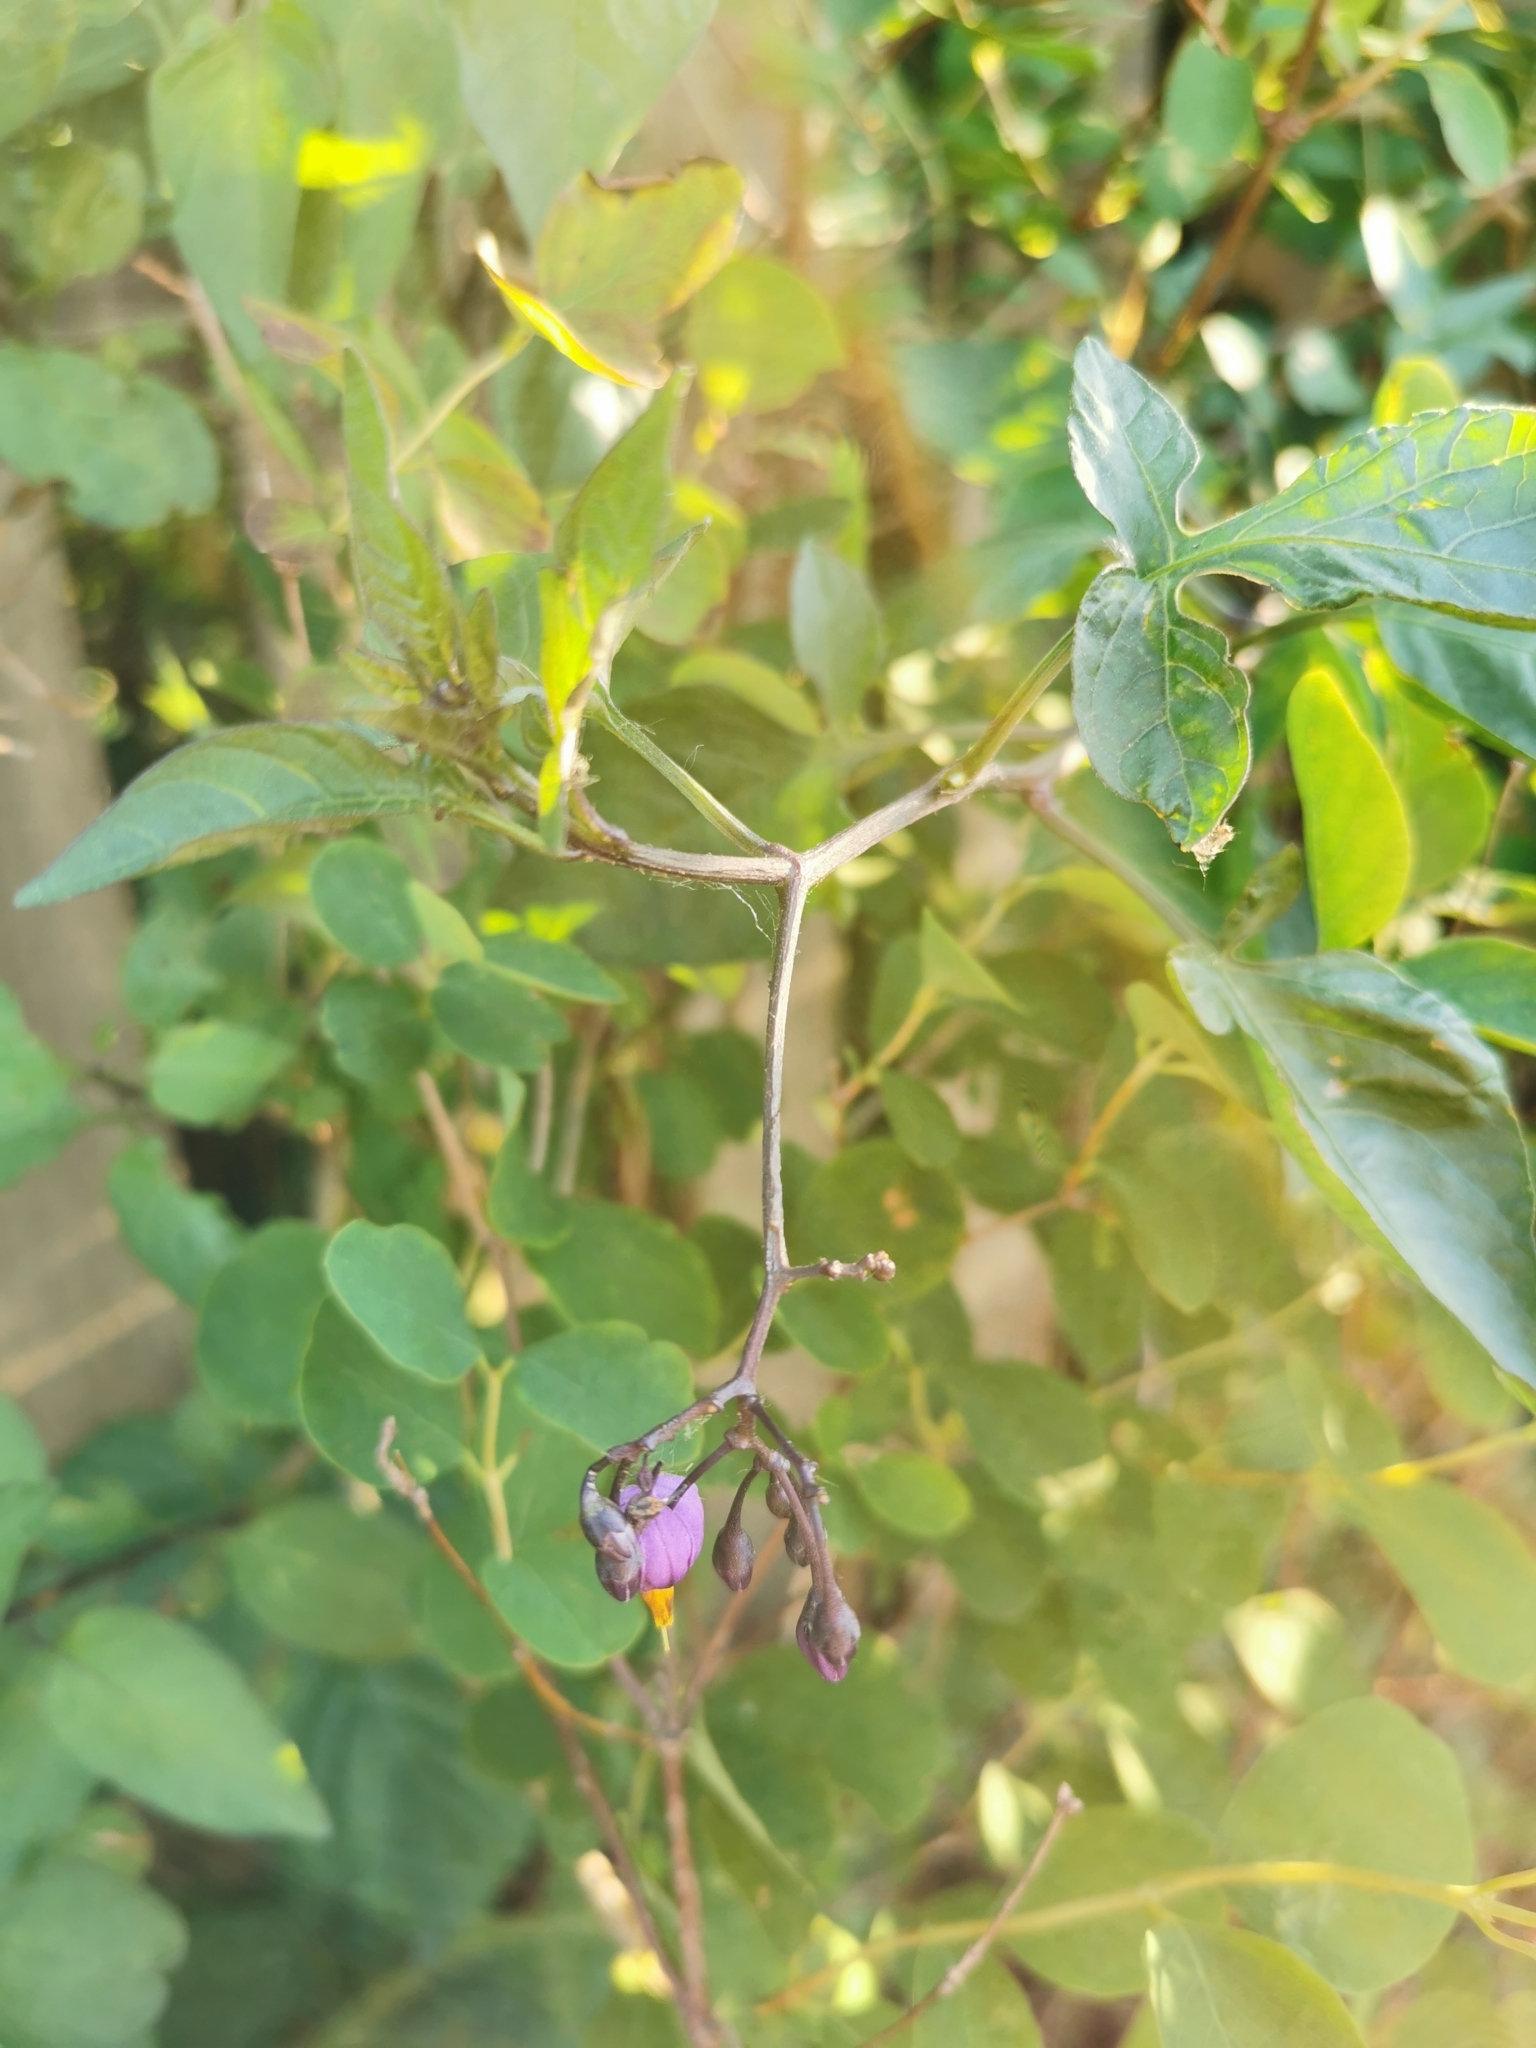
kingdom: Plantae
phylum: Tracheophyta
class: Magnoliopsida
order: Solanales
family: Solanaceae
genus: Solanum
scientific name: Solanum dulcamara
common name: Climbing nightshade
